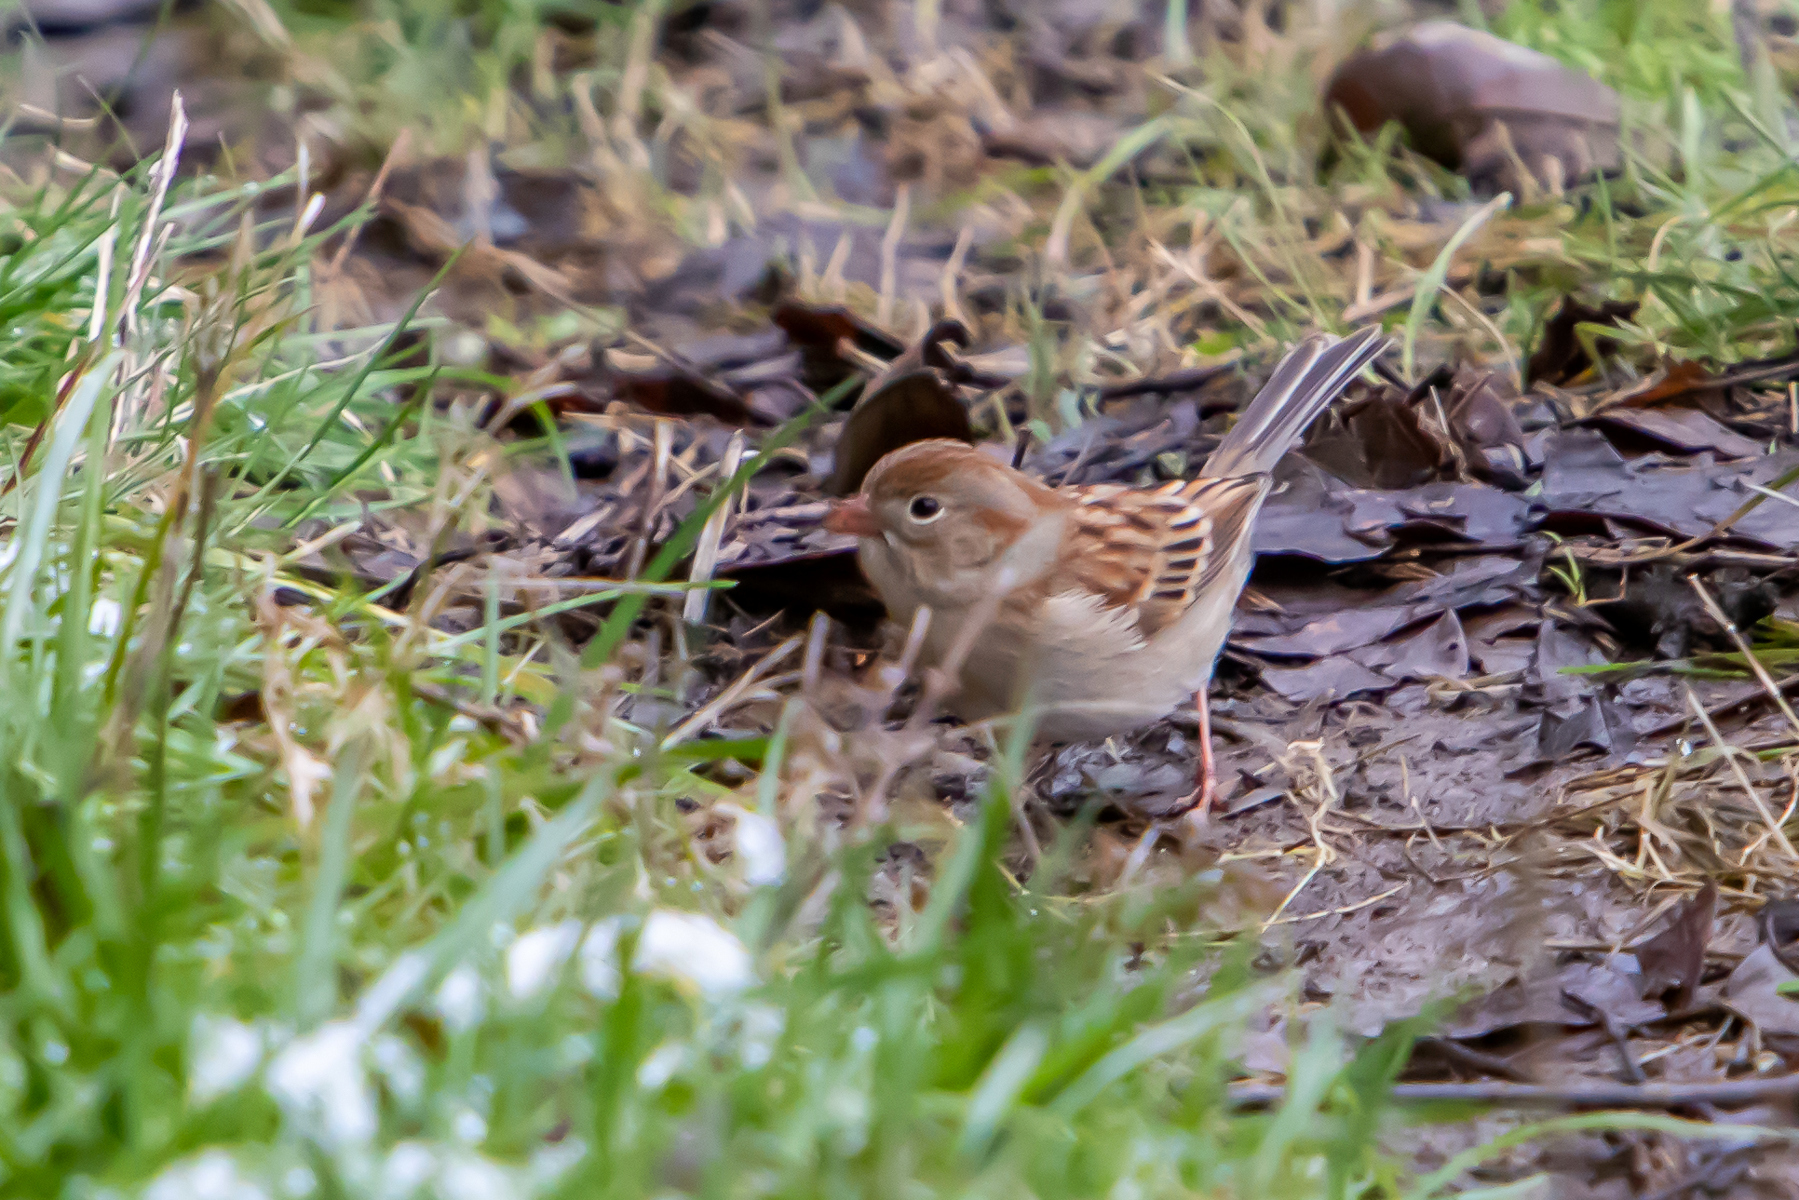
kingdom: Animalia
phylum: Chordata
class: Aves
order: Passeriformes
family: Passerellidae
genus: Spizella
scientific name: Spizella pusilla
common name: Field sparrow
